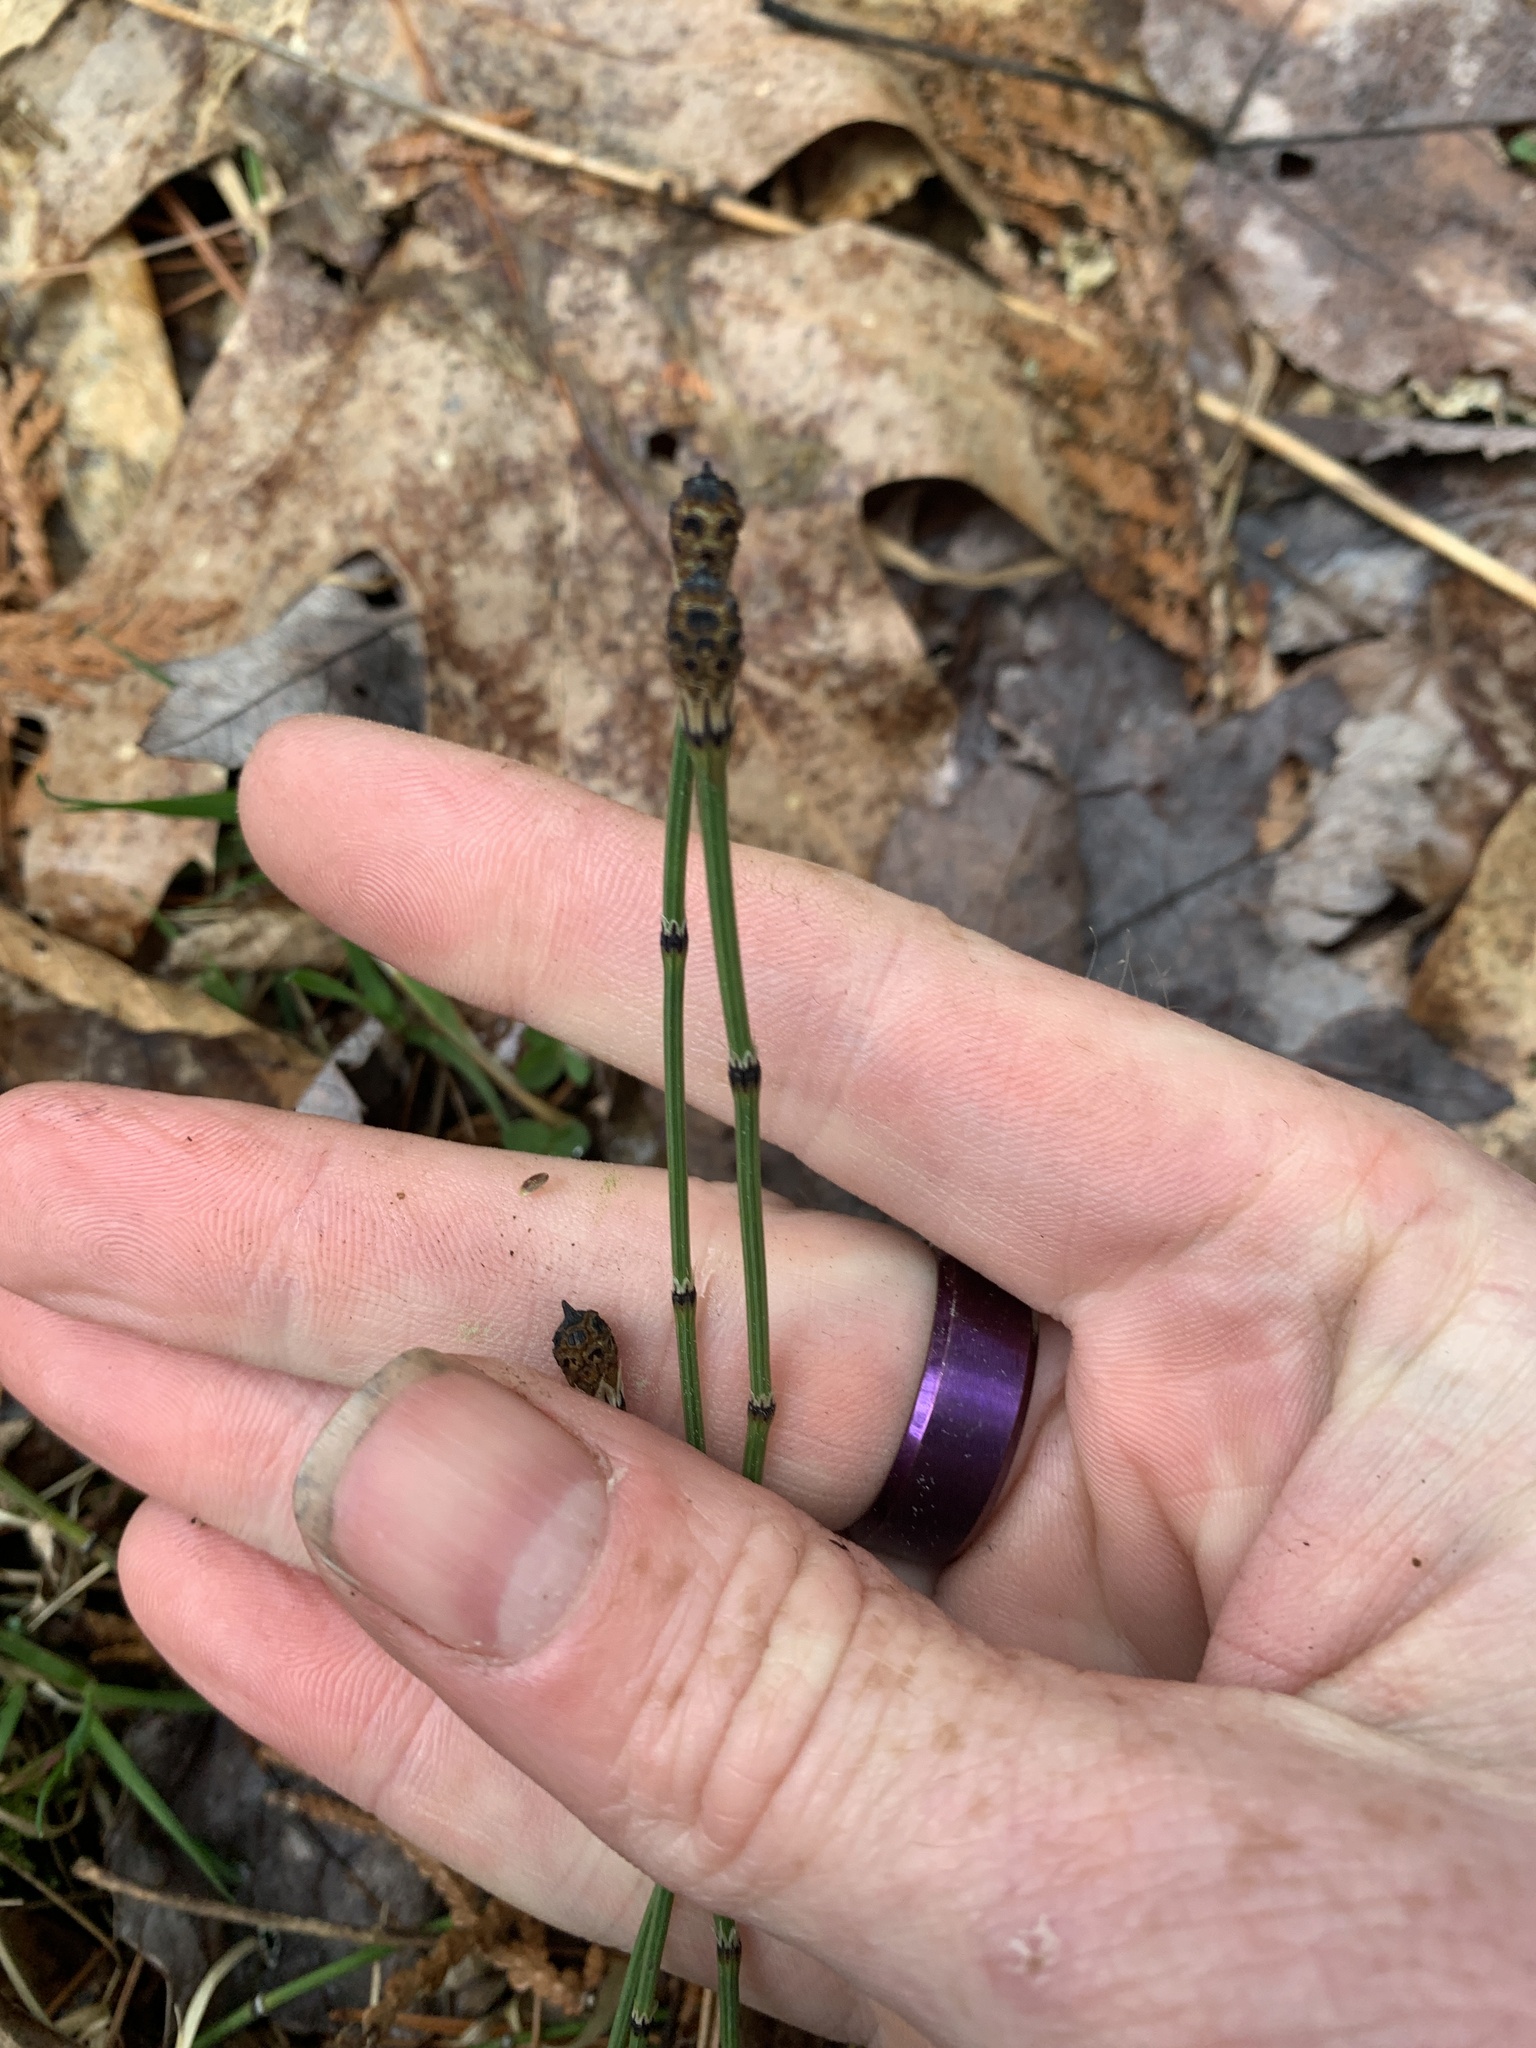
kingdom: Plantae
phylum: Tracheophyta
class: Polypodiopsida
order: Equisetales
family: Equisetaceae
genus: Equisetum
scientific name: Equisetum variegatum
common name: Variegated horsetail
